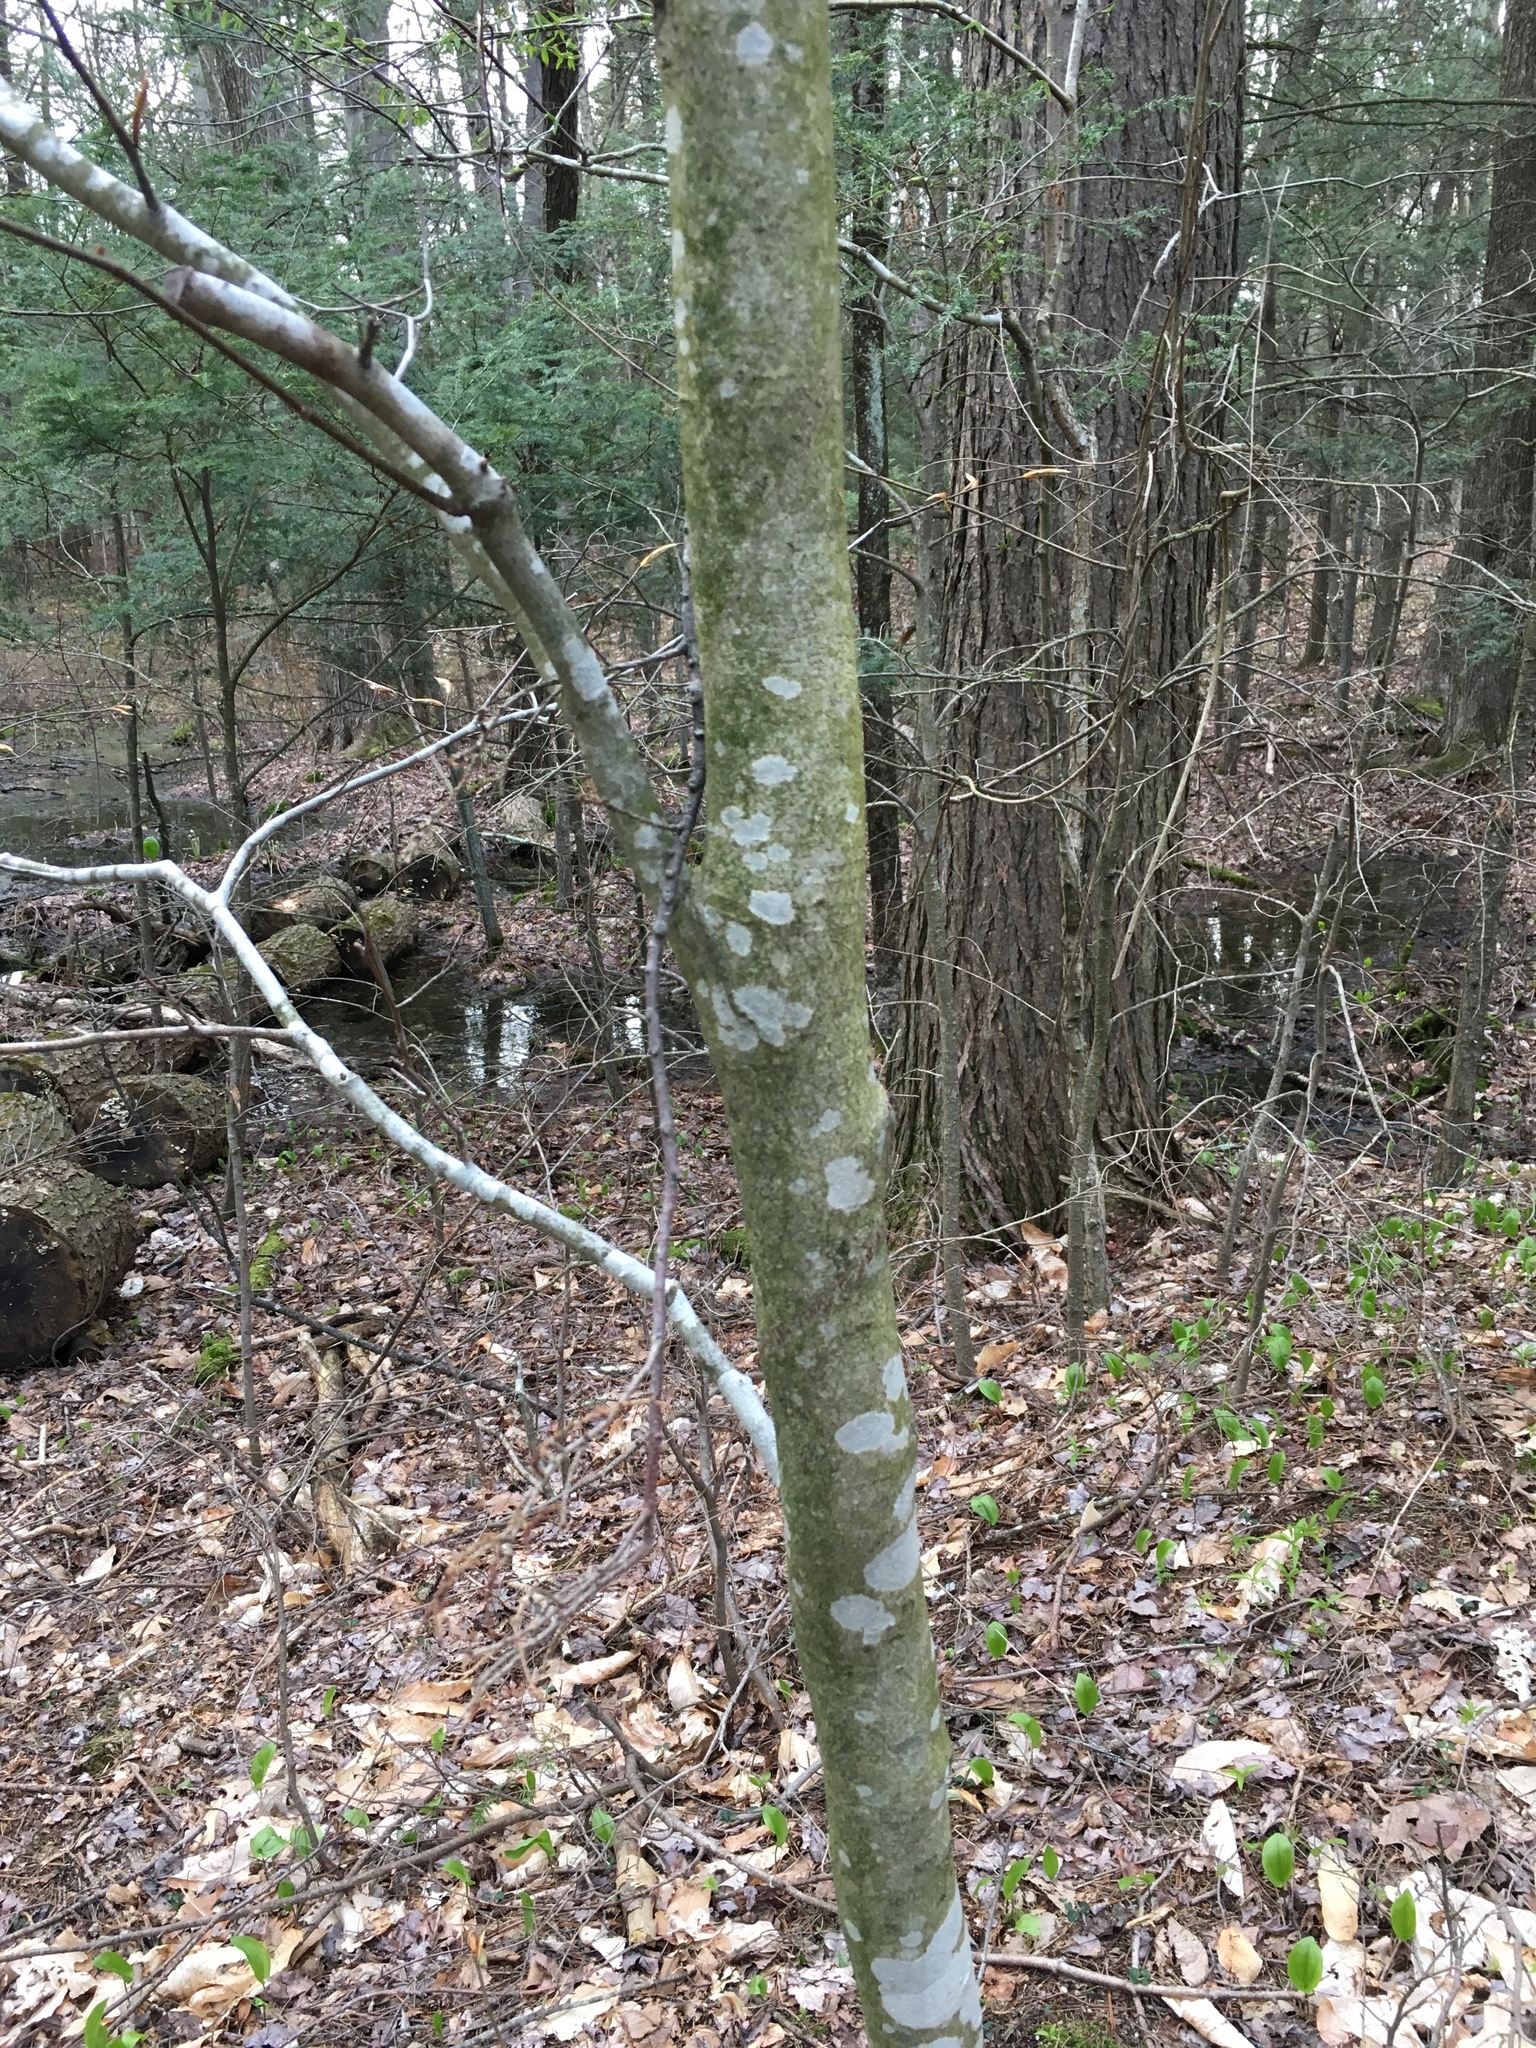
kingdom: Plantae
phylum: Tracheophyta
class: Magnoliopsida
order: Fagales
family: Fagaceae
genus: Fagus
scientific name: Fagus grandifolia
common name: American beech
